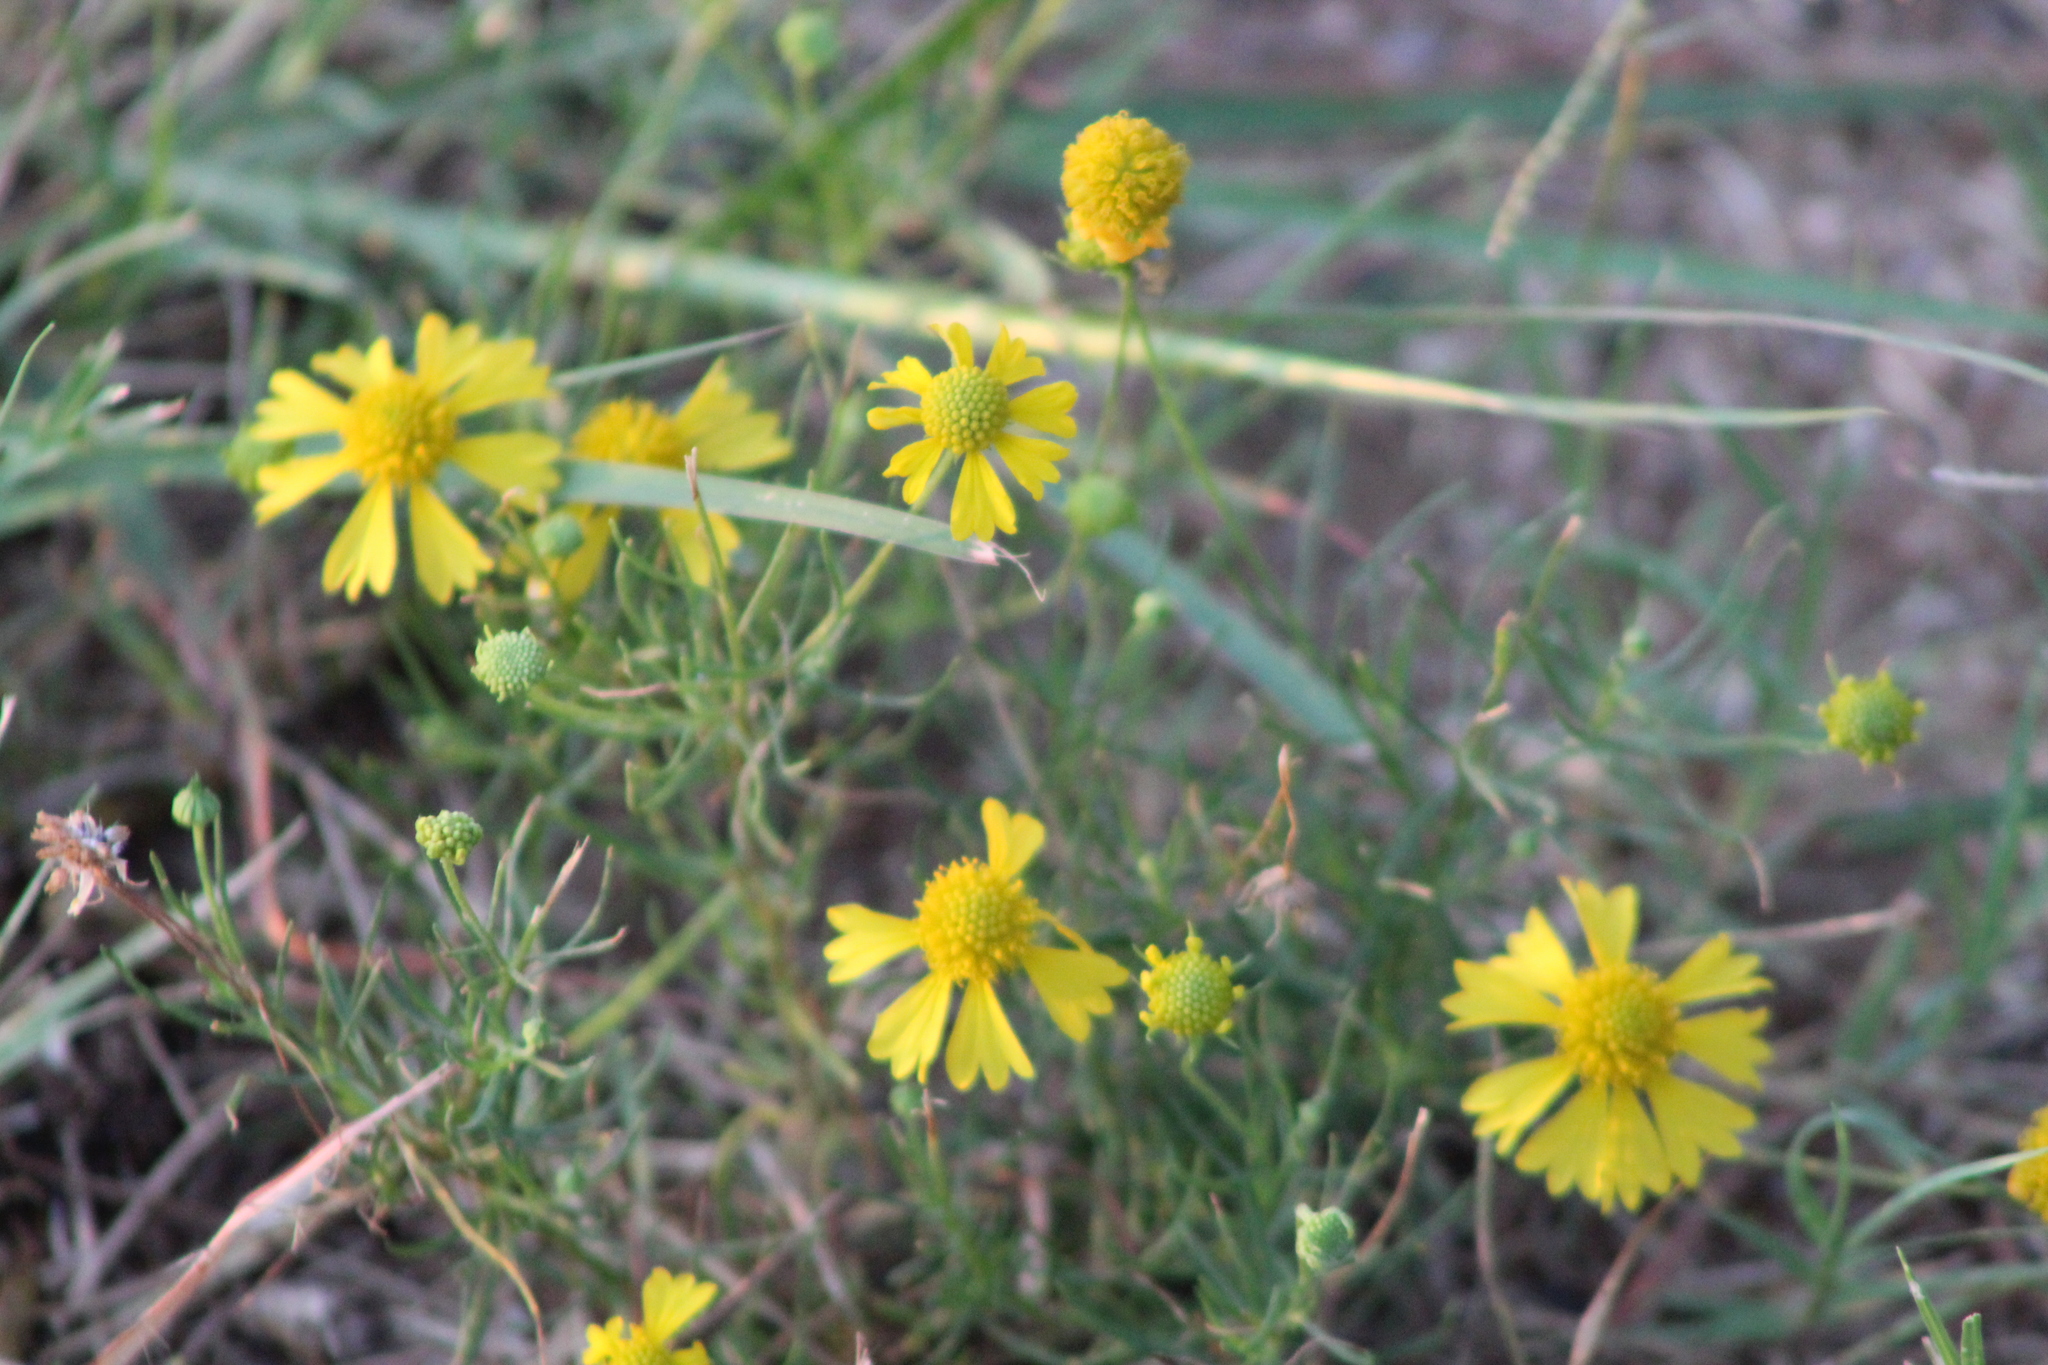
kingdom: Plantae
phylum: Tracheophyta
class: Magnoliopsida
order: Asterales
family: Asteraceae
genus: Helenium
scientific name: Helenium amarum
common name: Bitter sneezeweed
